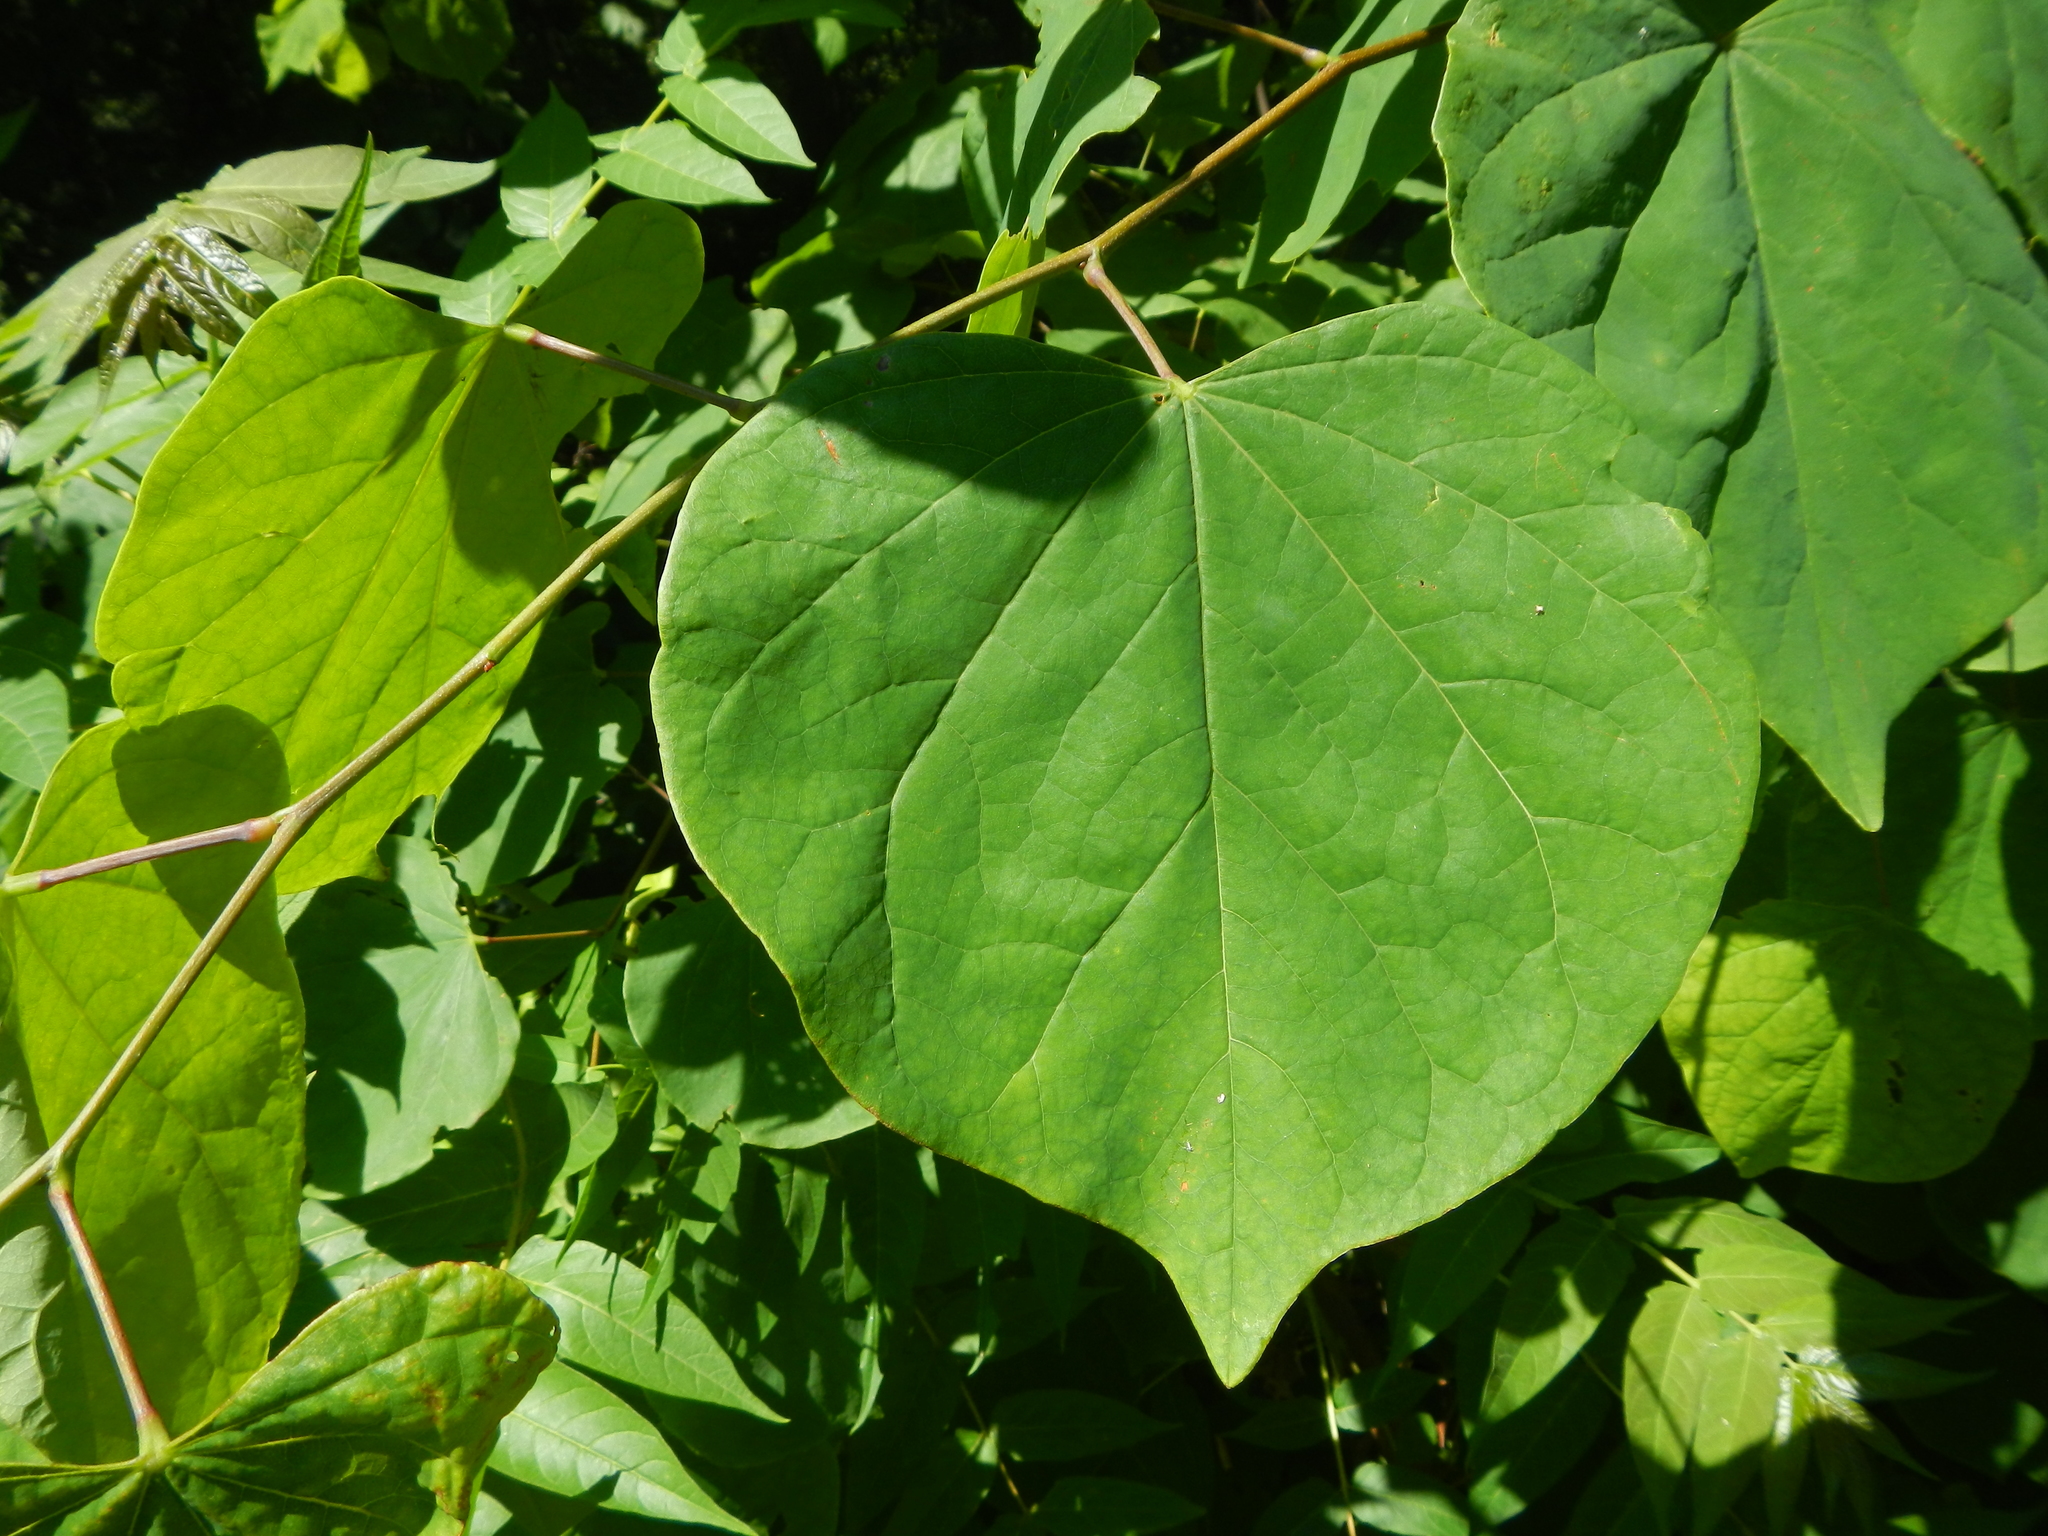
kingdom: Plantae
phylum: Tracheophyta
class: Magnoliopsida
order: Fabales
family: Fabaceae
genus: Cercis
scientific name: Cercis canadensis
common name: Eastern redbud
